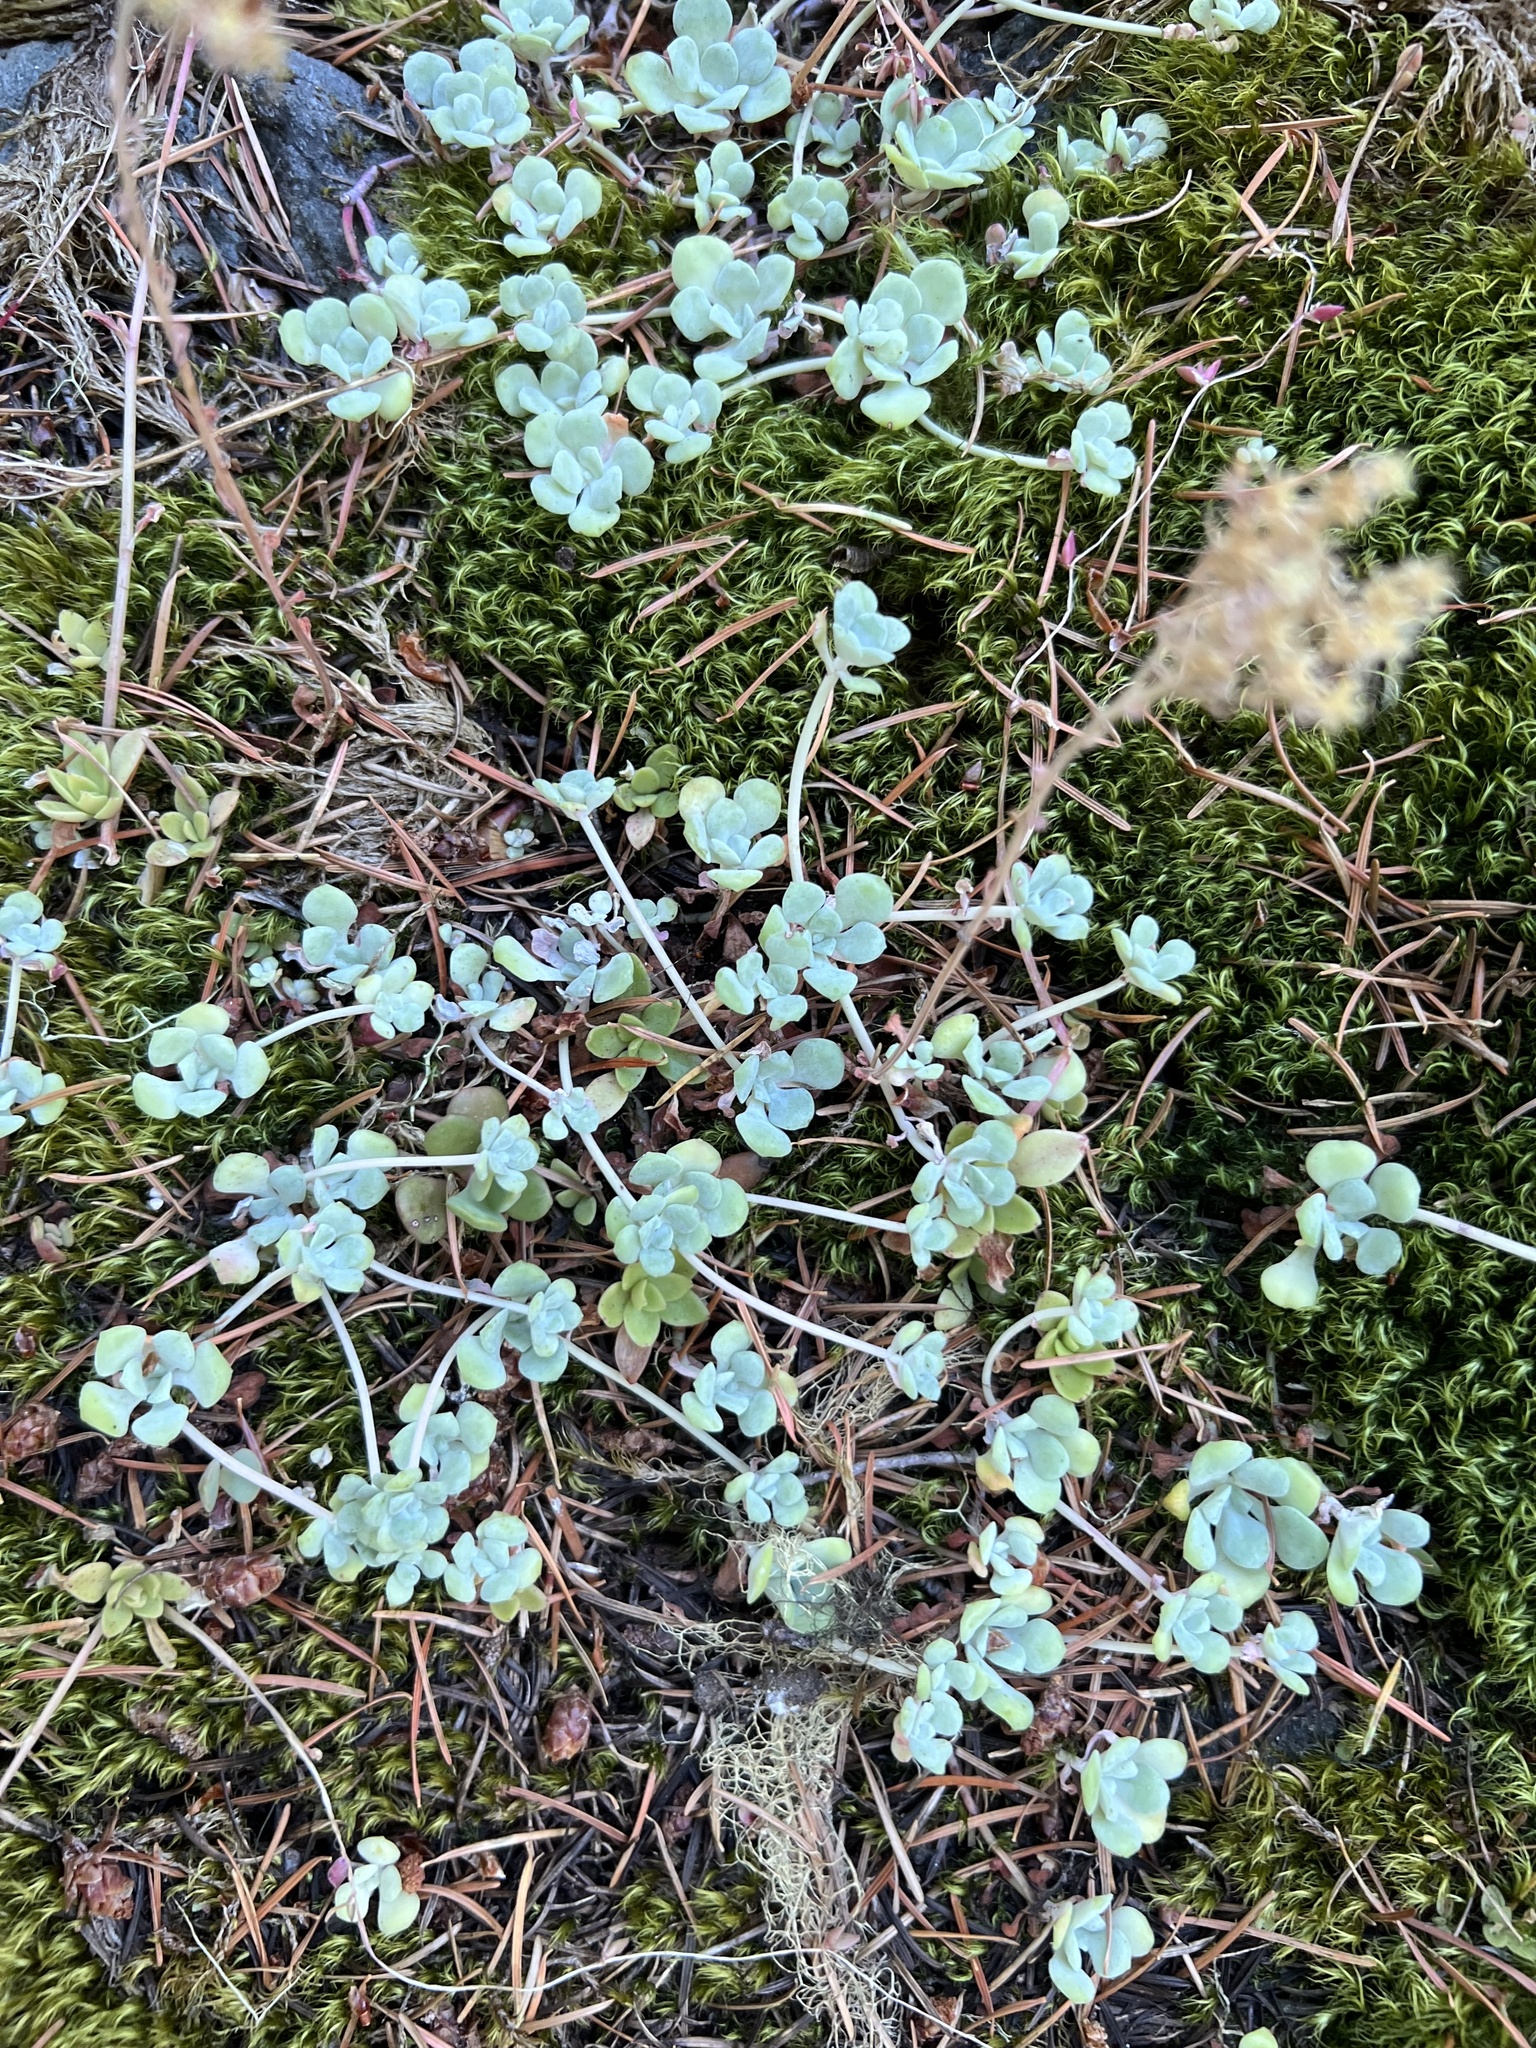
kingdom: Plantae
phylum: Tracheophyta
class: Magnoliopsida
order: Saxifragales
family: Crassulaceae
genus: Sedum
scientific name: Sedum spathulifolium
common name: Colorado stonecrop
